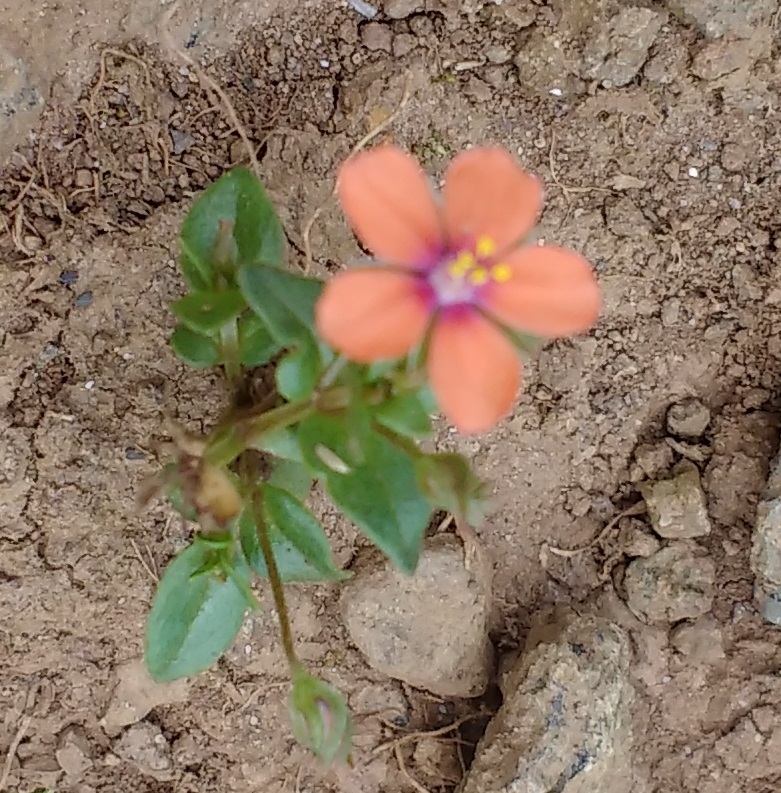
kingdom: Plantae
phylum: Tracheophyta
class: Magnoliopsida
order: Ericales
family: Primulaceae
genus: Lysimachia
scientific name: Lysimachia arvensis
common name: Scarlet pimpernel
